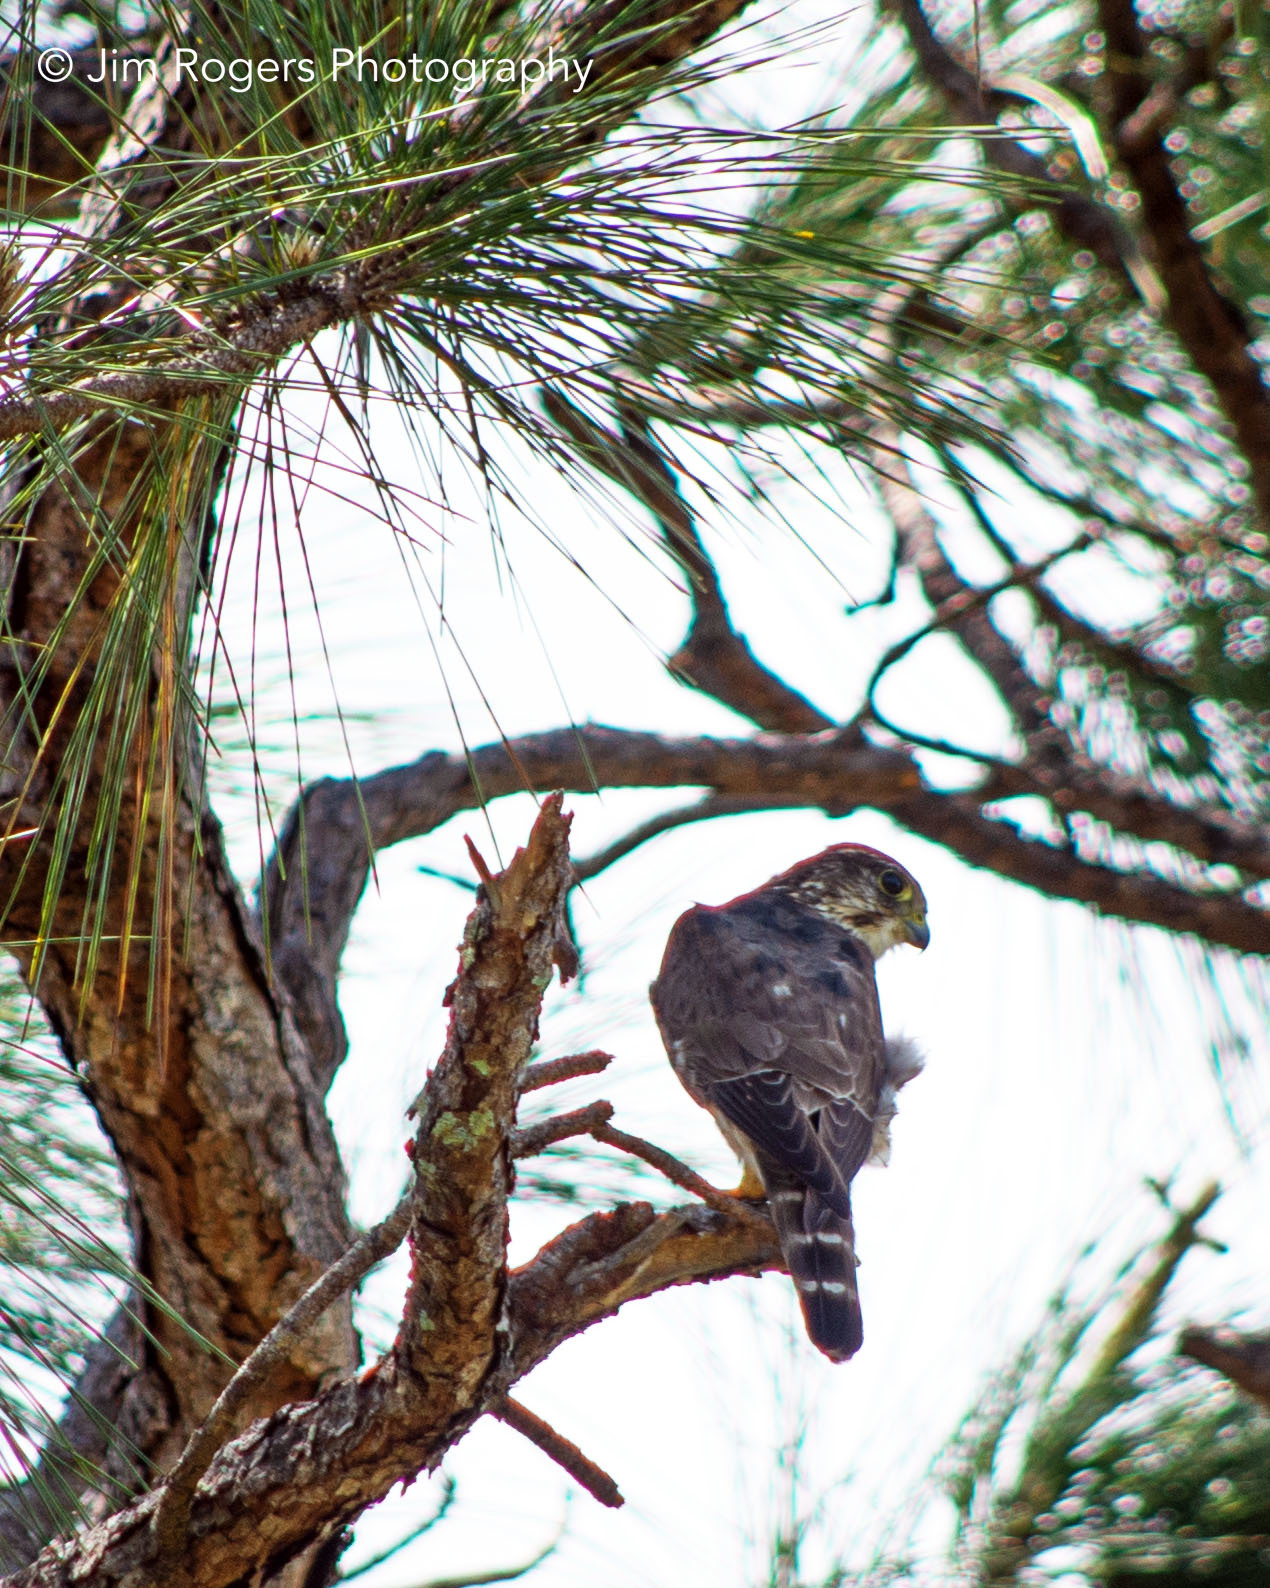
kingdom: Animalia
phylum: Chordata
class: Aves
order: Falconiformes
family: Falconidae
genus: Falco
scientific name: Falco columbarius
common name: Merlin
